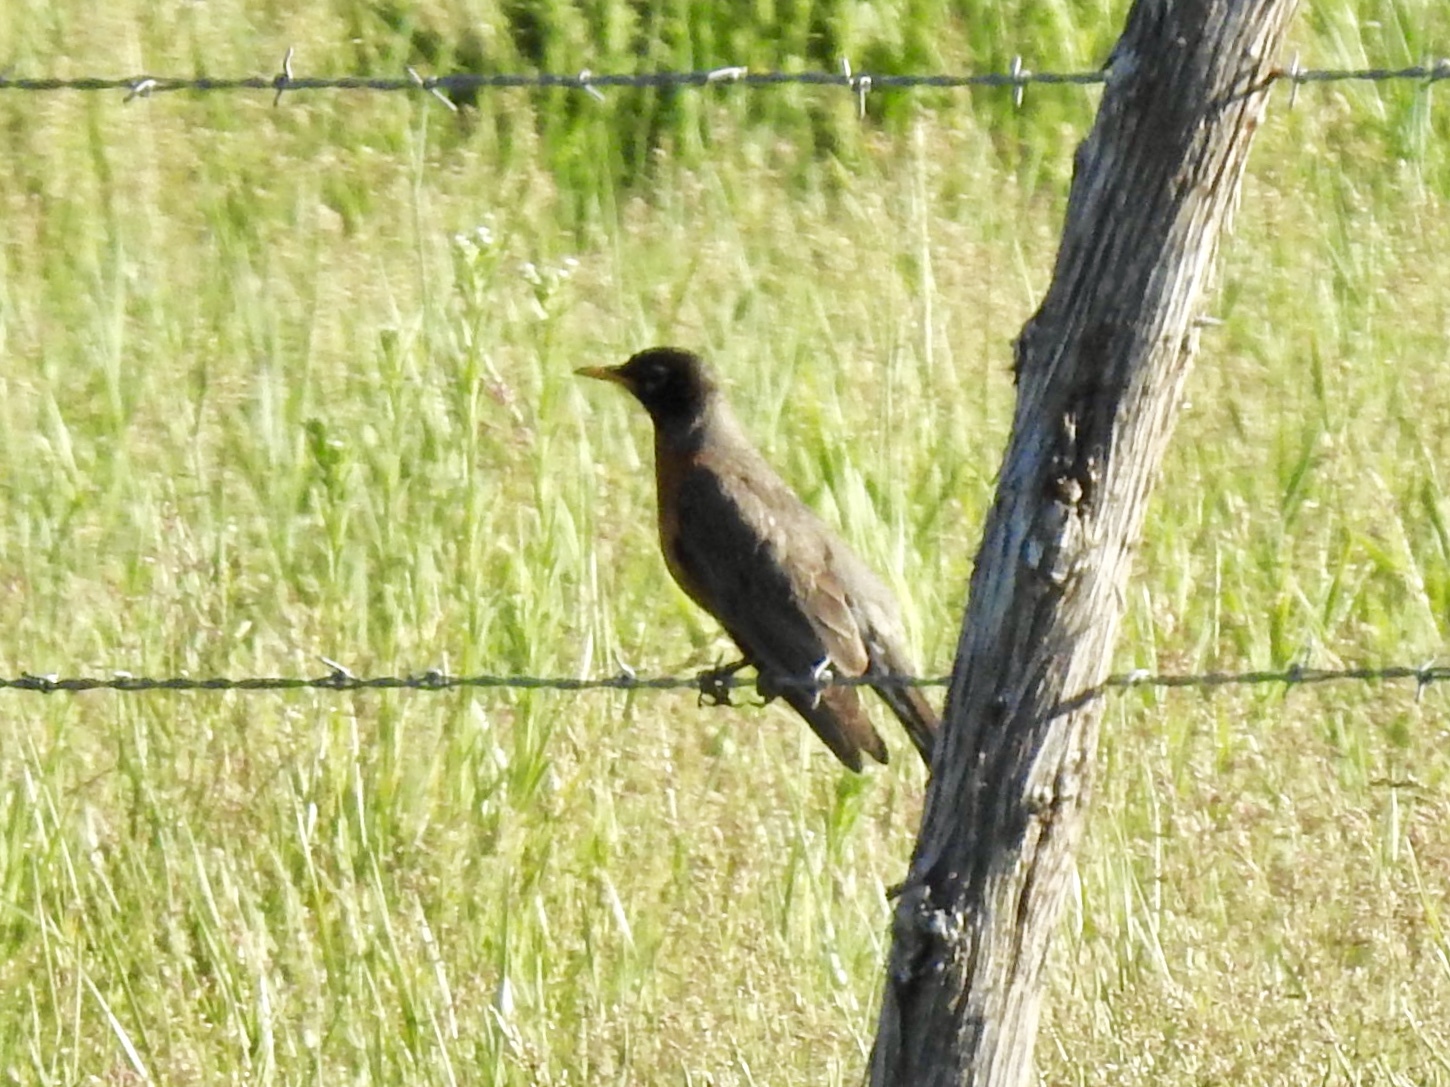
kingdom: Animalia
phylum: Chordata
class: Aves
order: Passeriformes
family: Turdidae
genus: Turdus
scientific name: Turdus migratorius
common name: American robin
